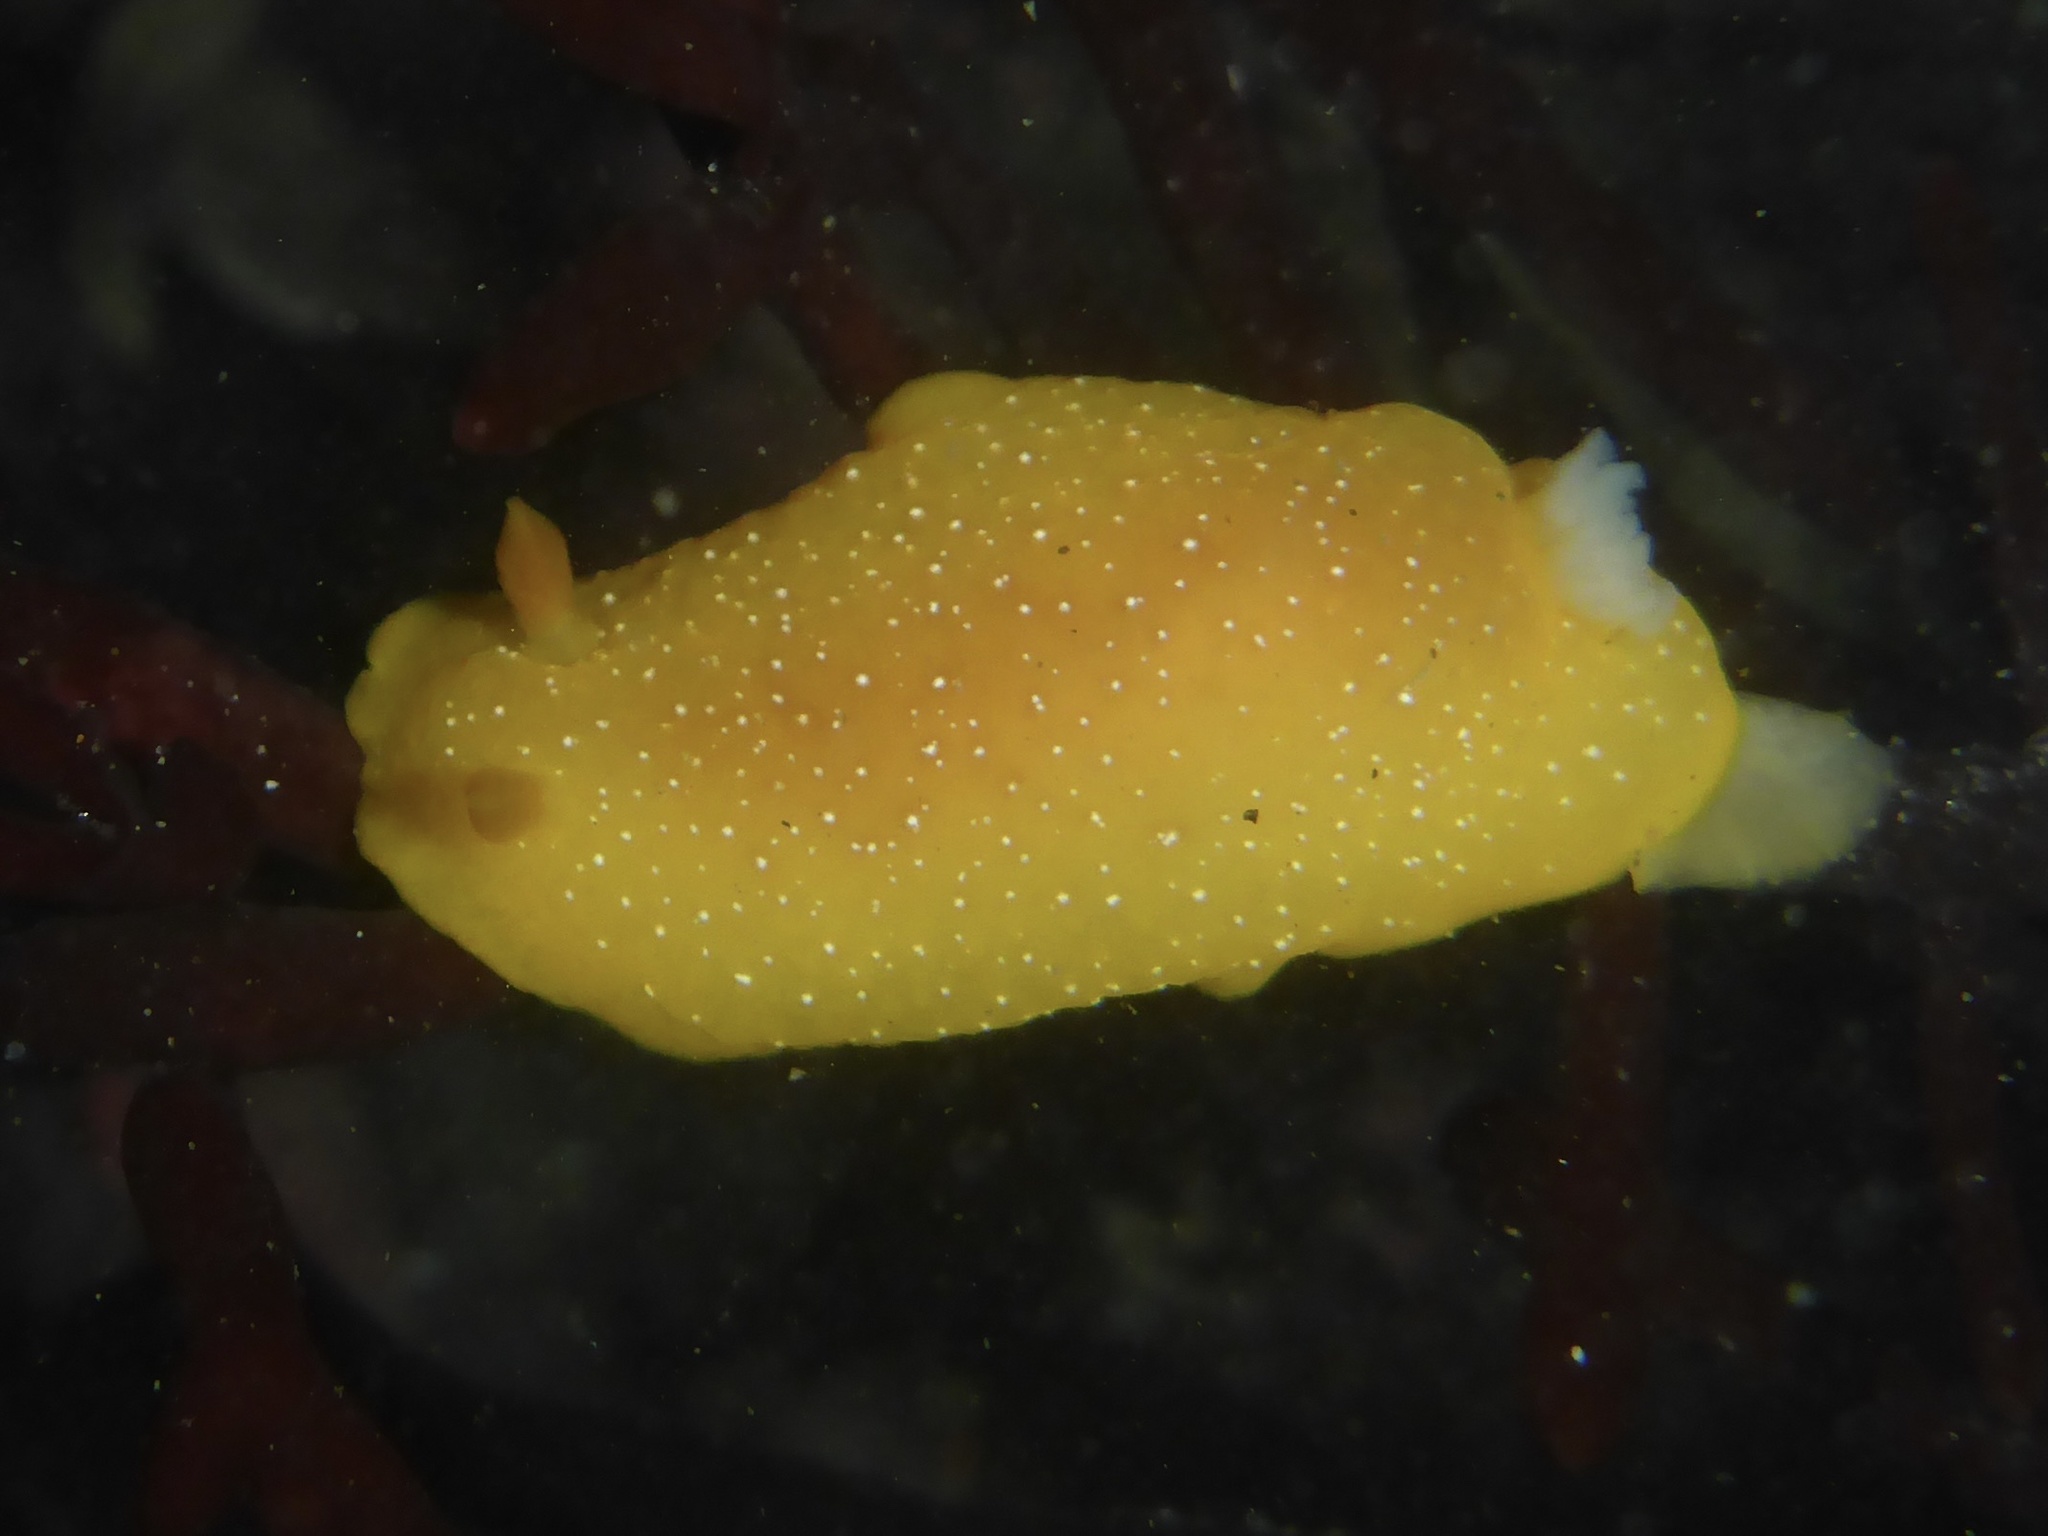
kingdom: Animalia
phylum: Mollusca
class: Gastropoda
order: Nudibranchia
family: Dendrodorididae
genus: Doriopsilla
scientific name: Doriopsilla fulva
